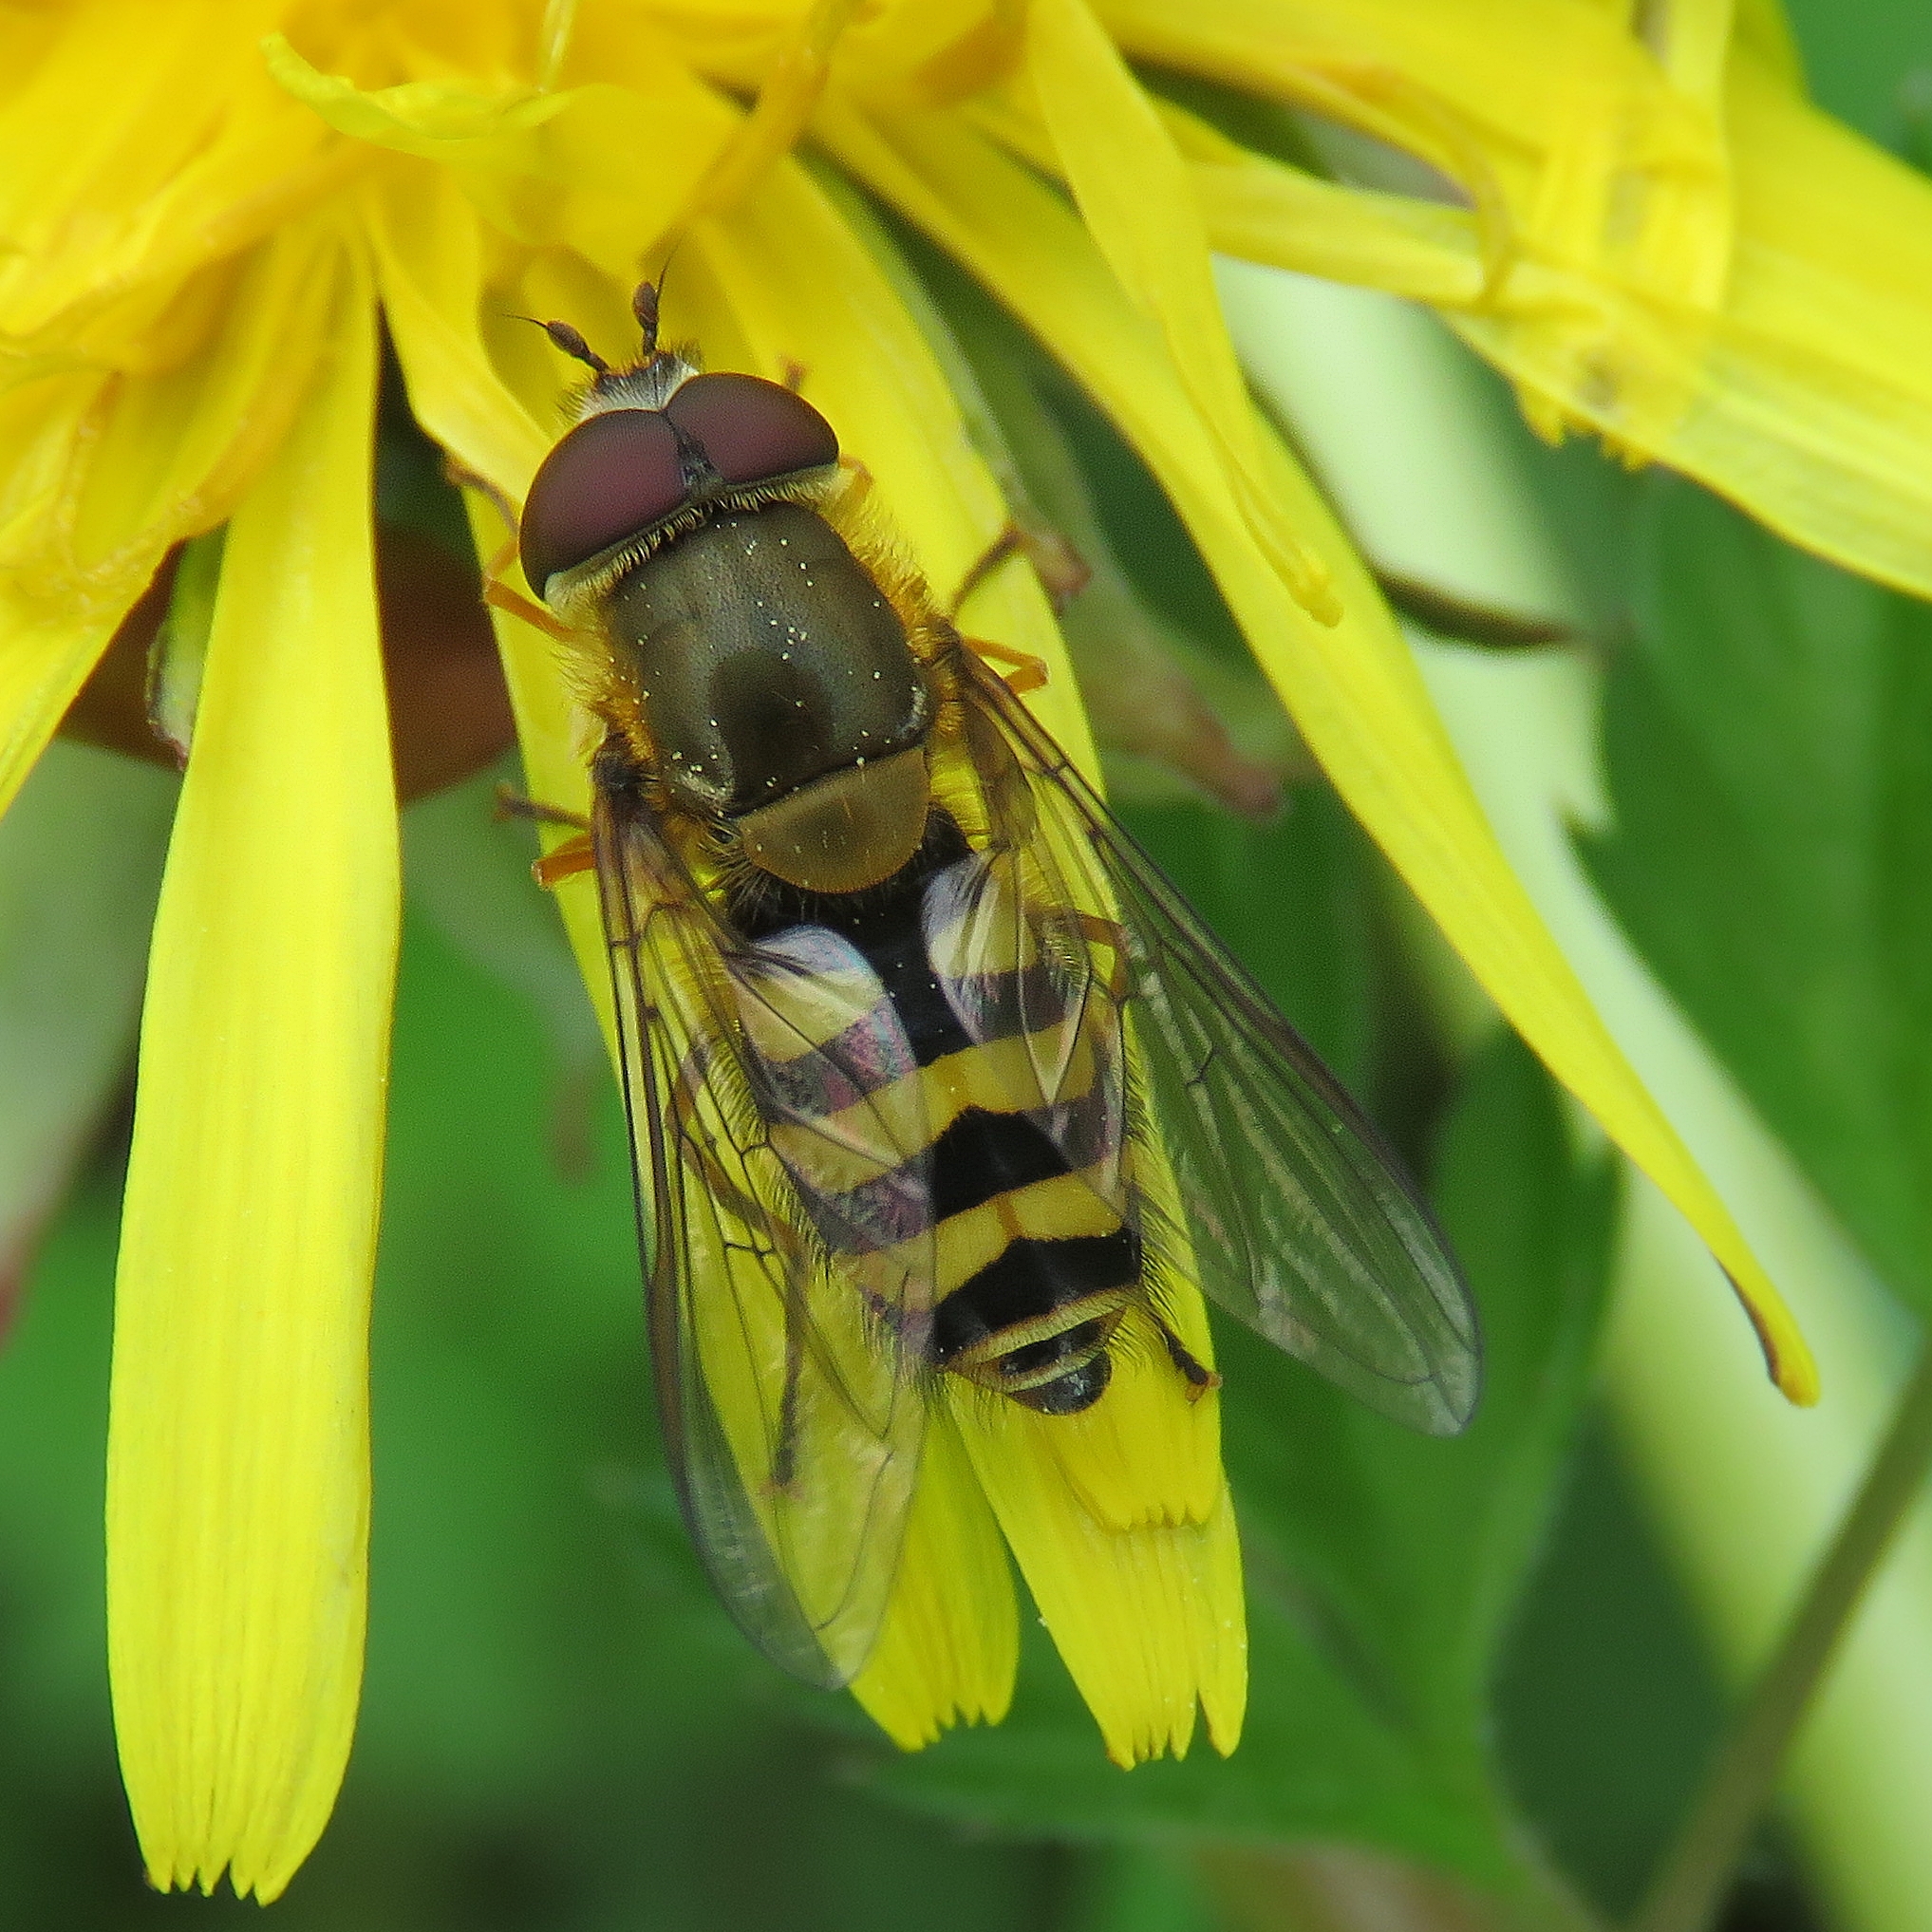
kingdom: Animalia
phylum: Arthropoda
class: Insecta
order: Diptera
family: Syrphidae
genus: Syrphus
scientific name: Syrphus
